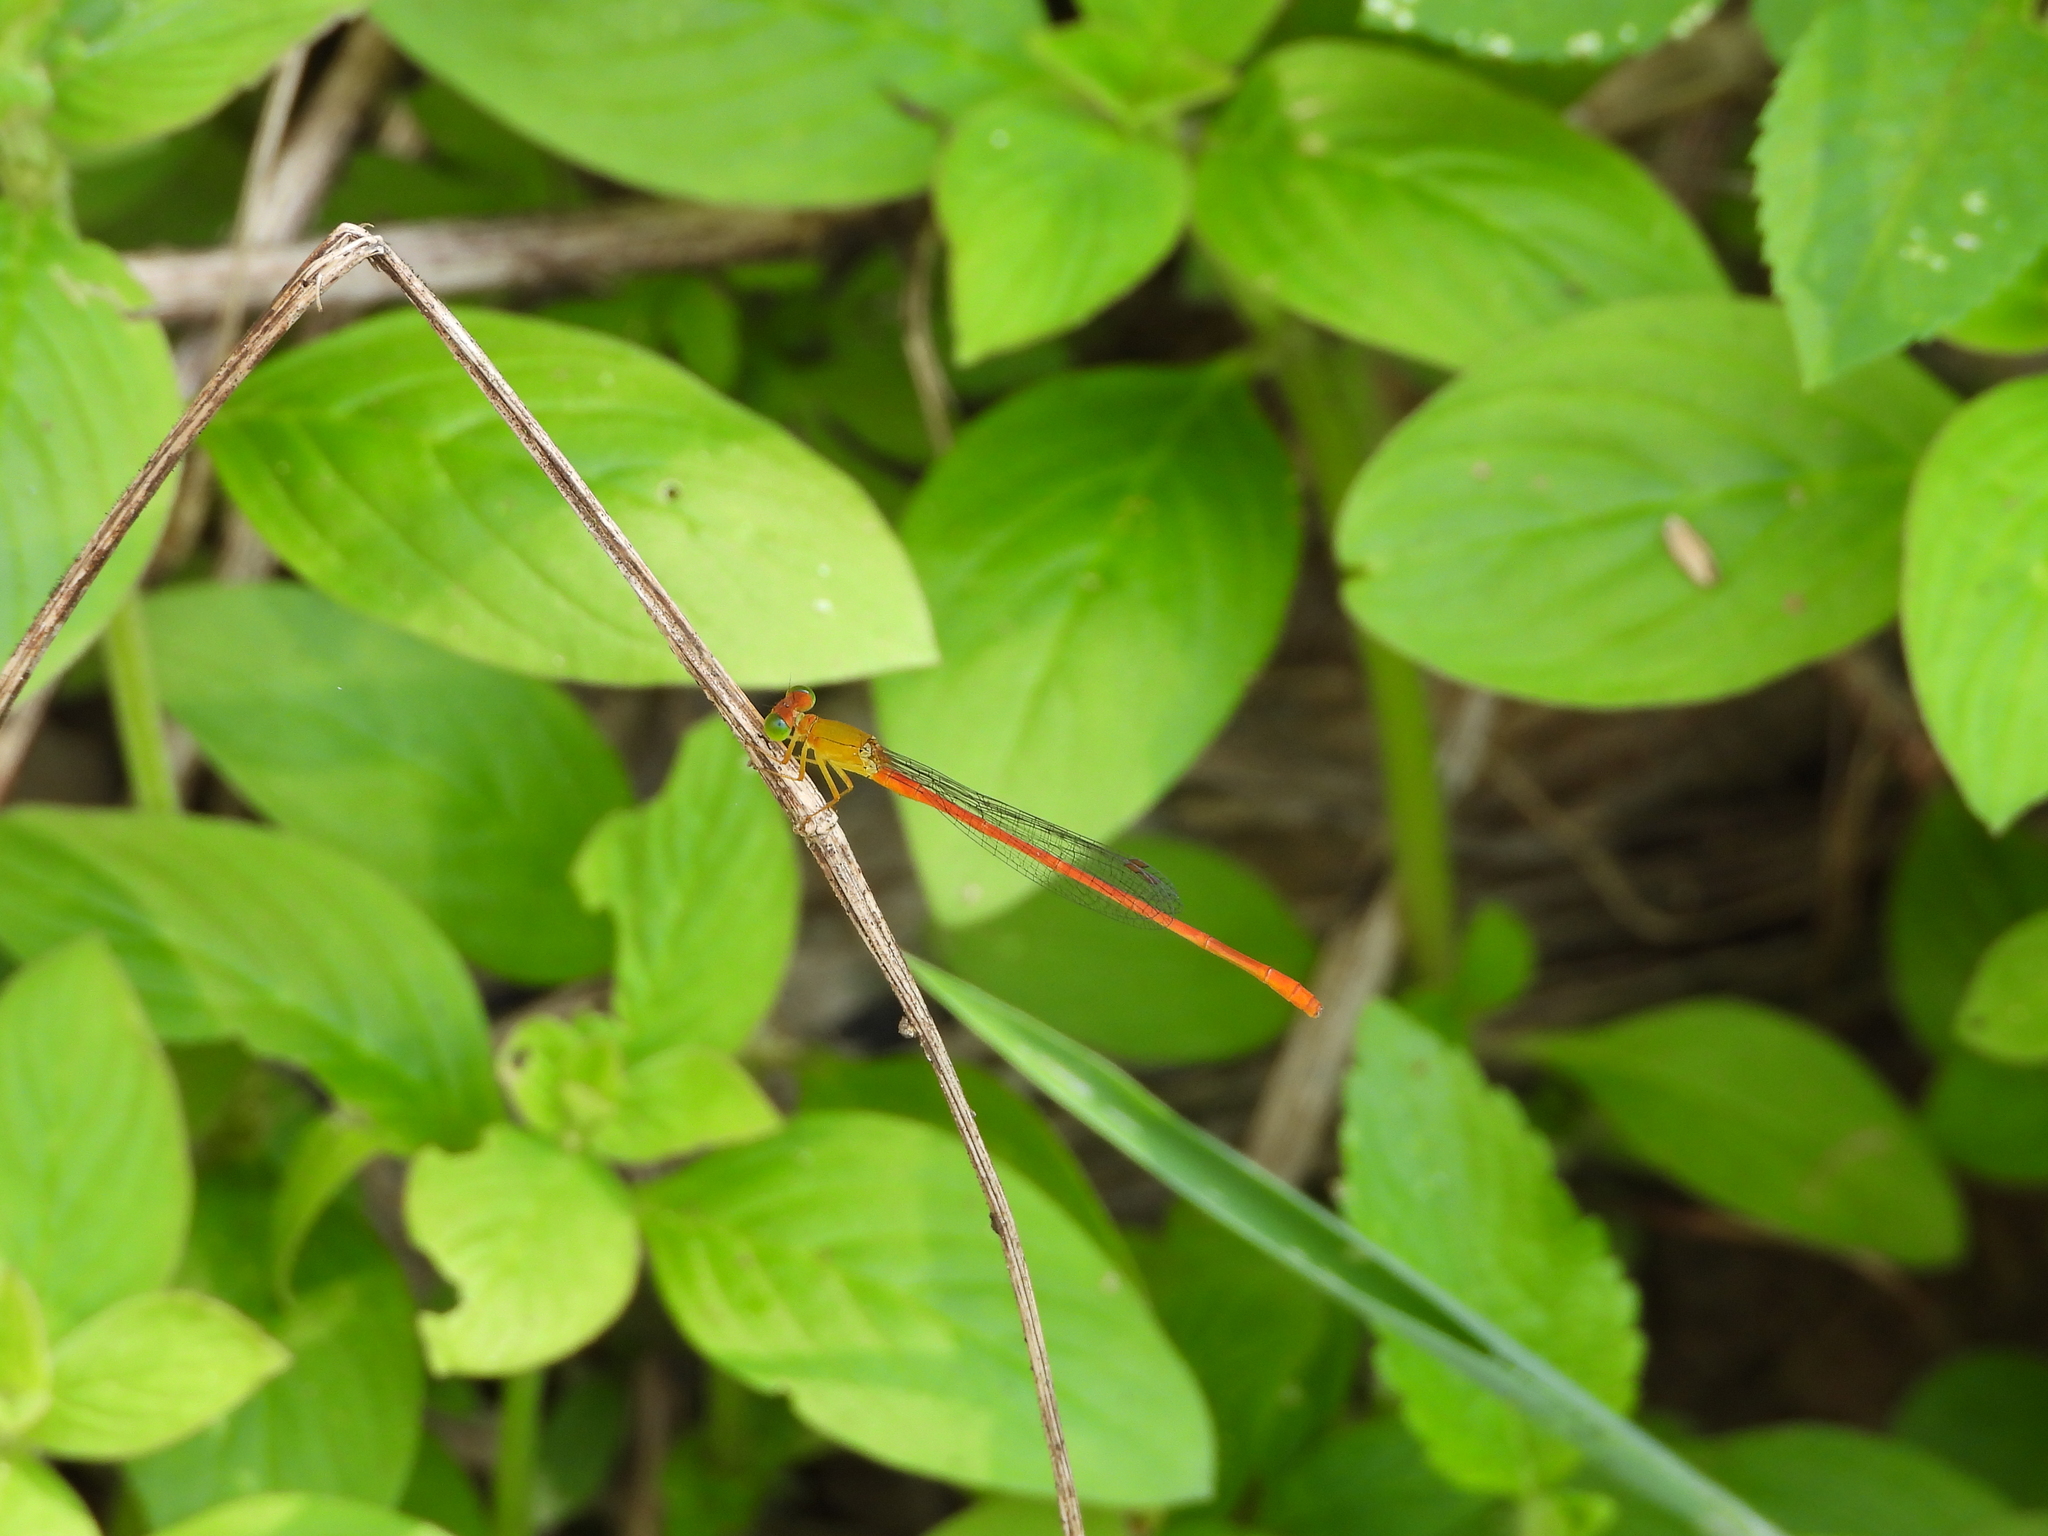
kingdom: Animalia
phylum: Arthropoda
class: Insecta
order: Odonata
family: Coenagrionidae
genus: Ceriagrion
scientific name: Ceriagrion auranticum
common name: Orange-tailed sprite
